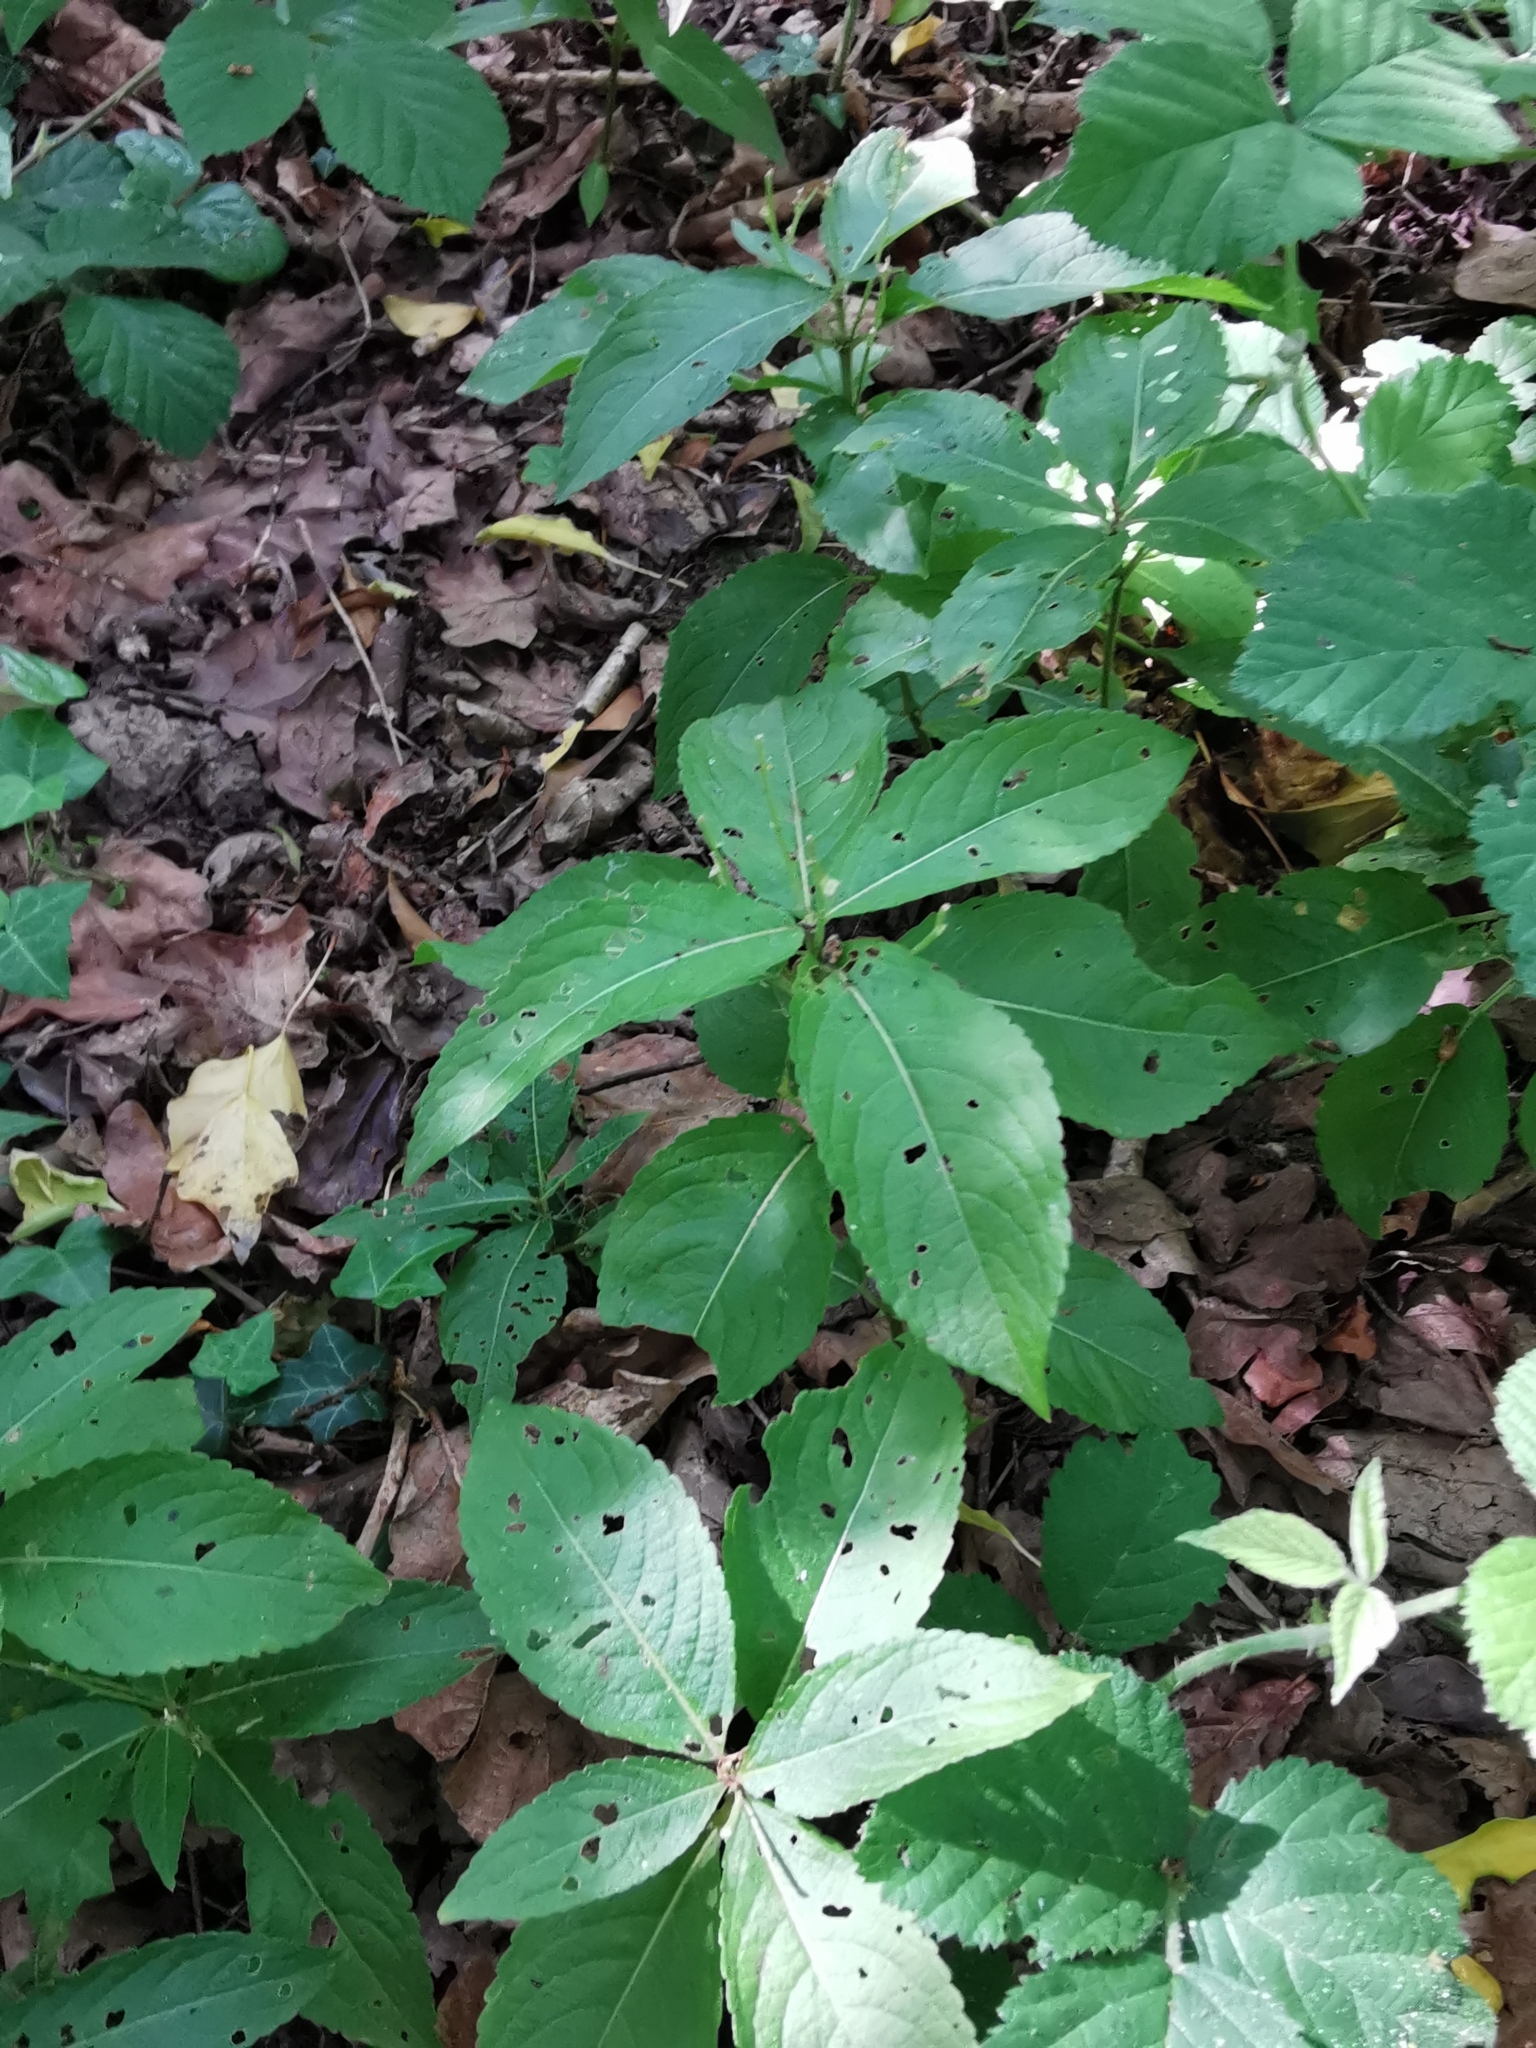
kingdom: Plantae
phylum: Tracheophyta
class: Magnoliopsida
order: Malpighiales
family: Euphorbiaceae
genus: Mercurialis
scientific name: Mercurialis perennis
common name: Dog mercury
